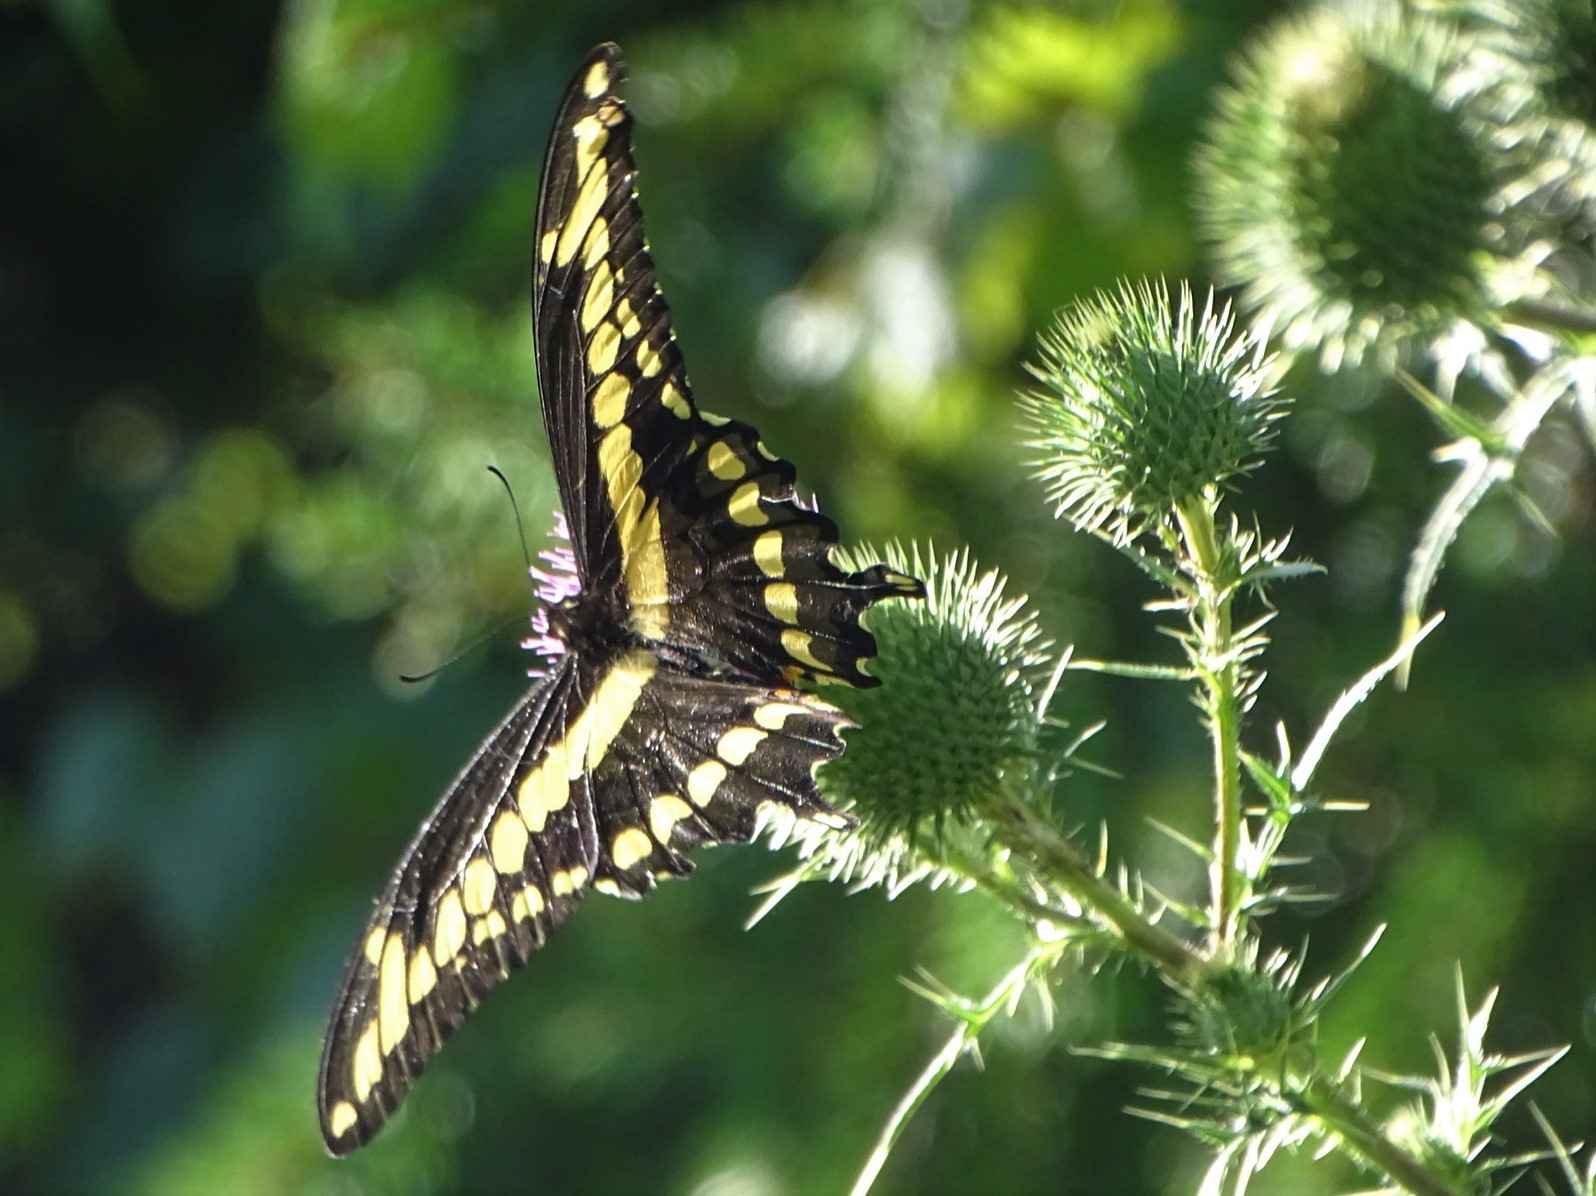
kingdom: Animalia
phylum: Arthropoda
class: Insecta
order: Lepidoptera
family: Papilionidae
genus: Papilio
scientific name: Papilio cresphontes
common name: Giant swallowtail
